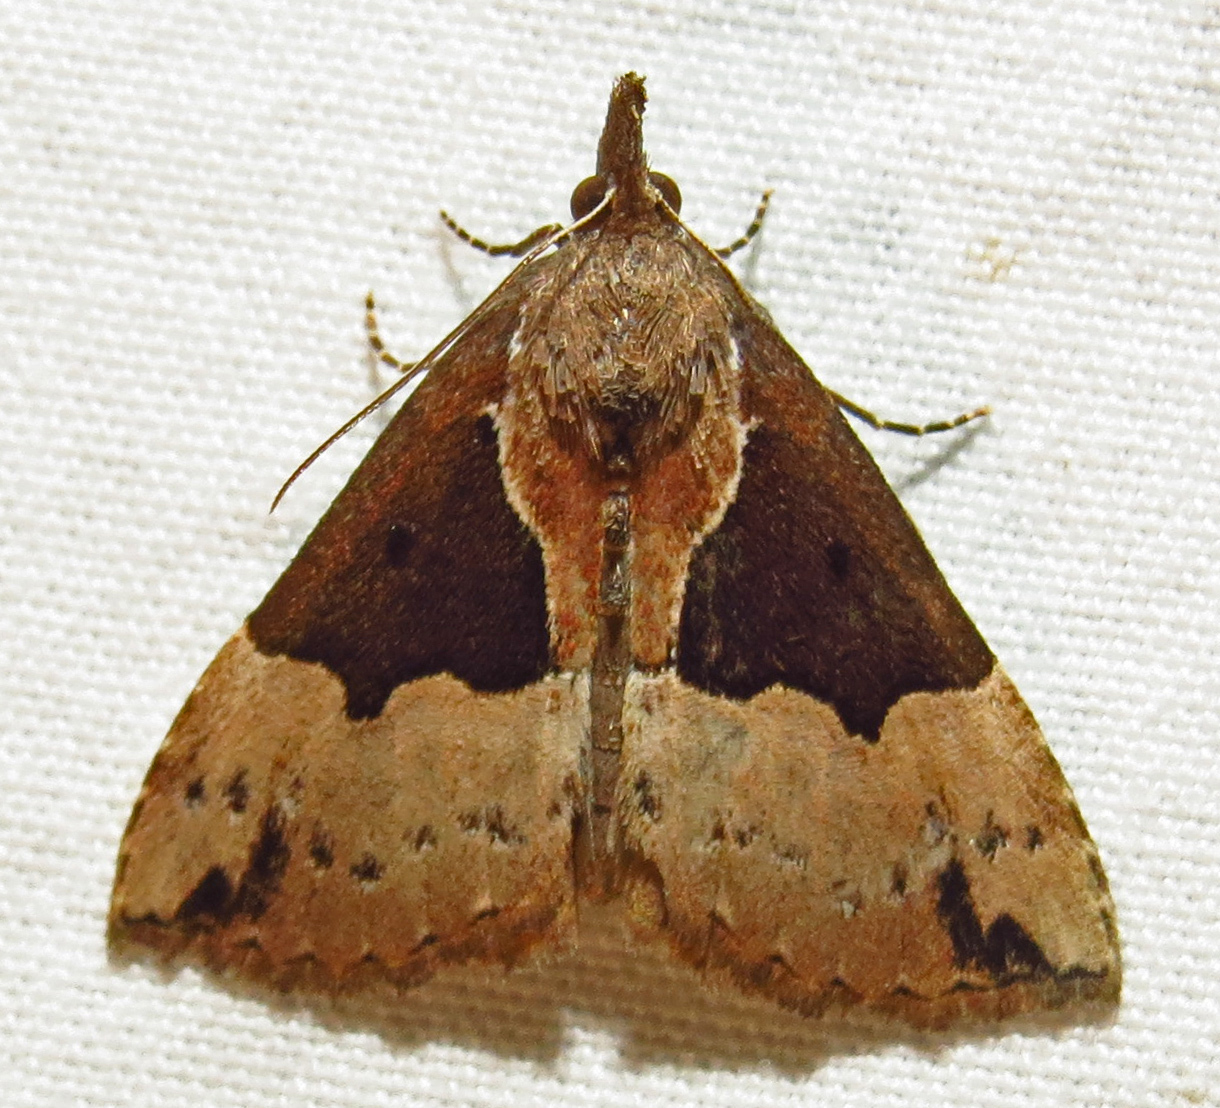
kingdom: Animalia
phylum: Arthropoda
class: Insecta
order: Lepidoptera
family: Erebidae
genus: Hypena
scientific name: Hypena bijugalis
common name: Dimorphic bomolocha moth
